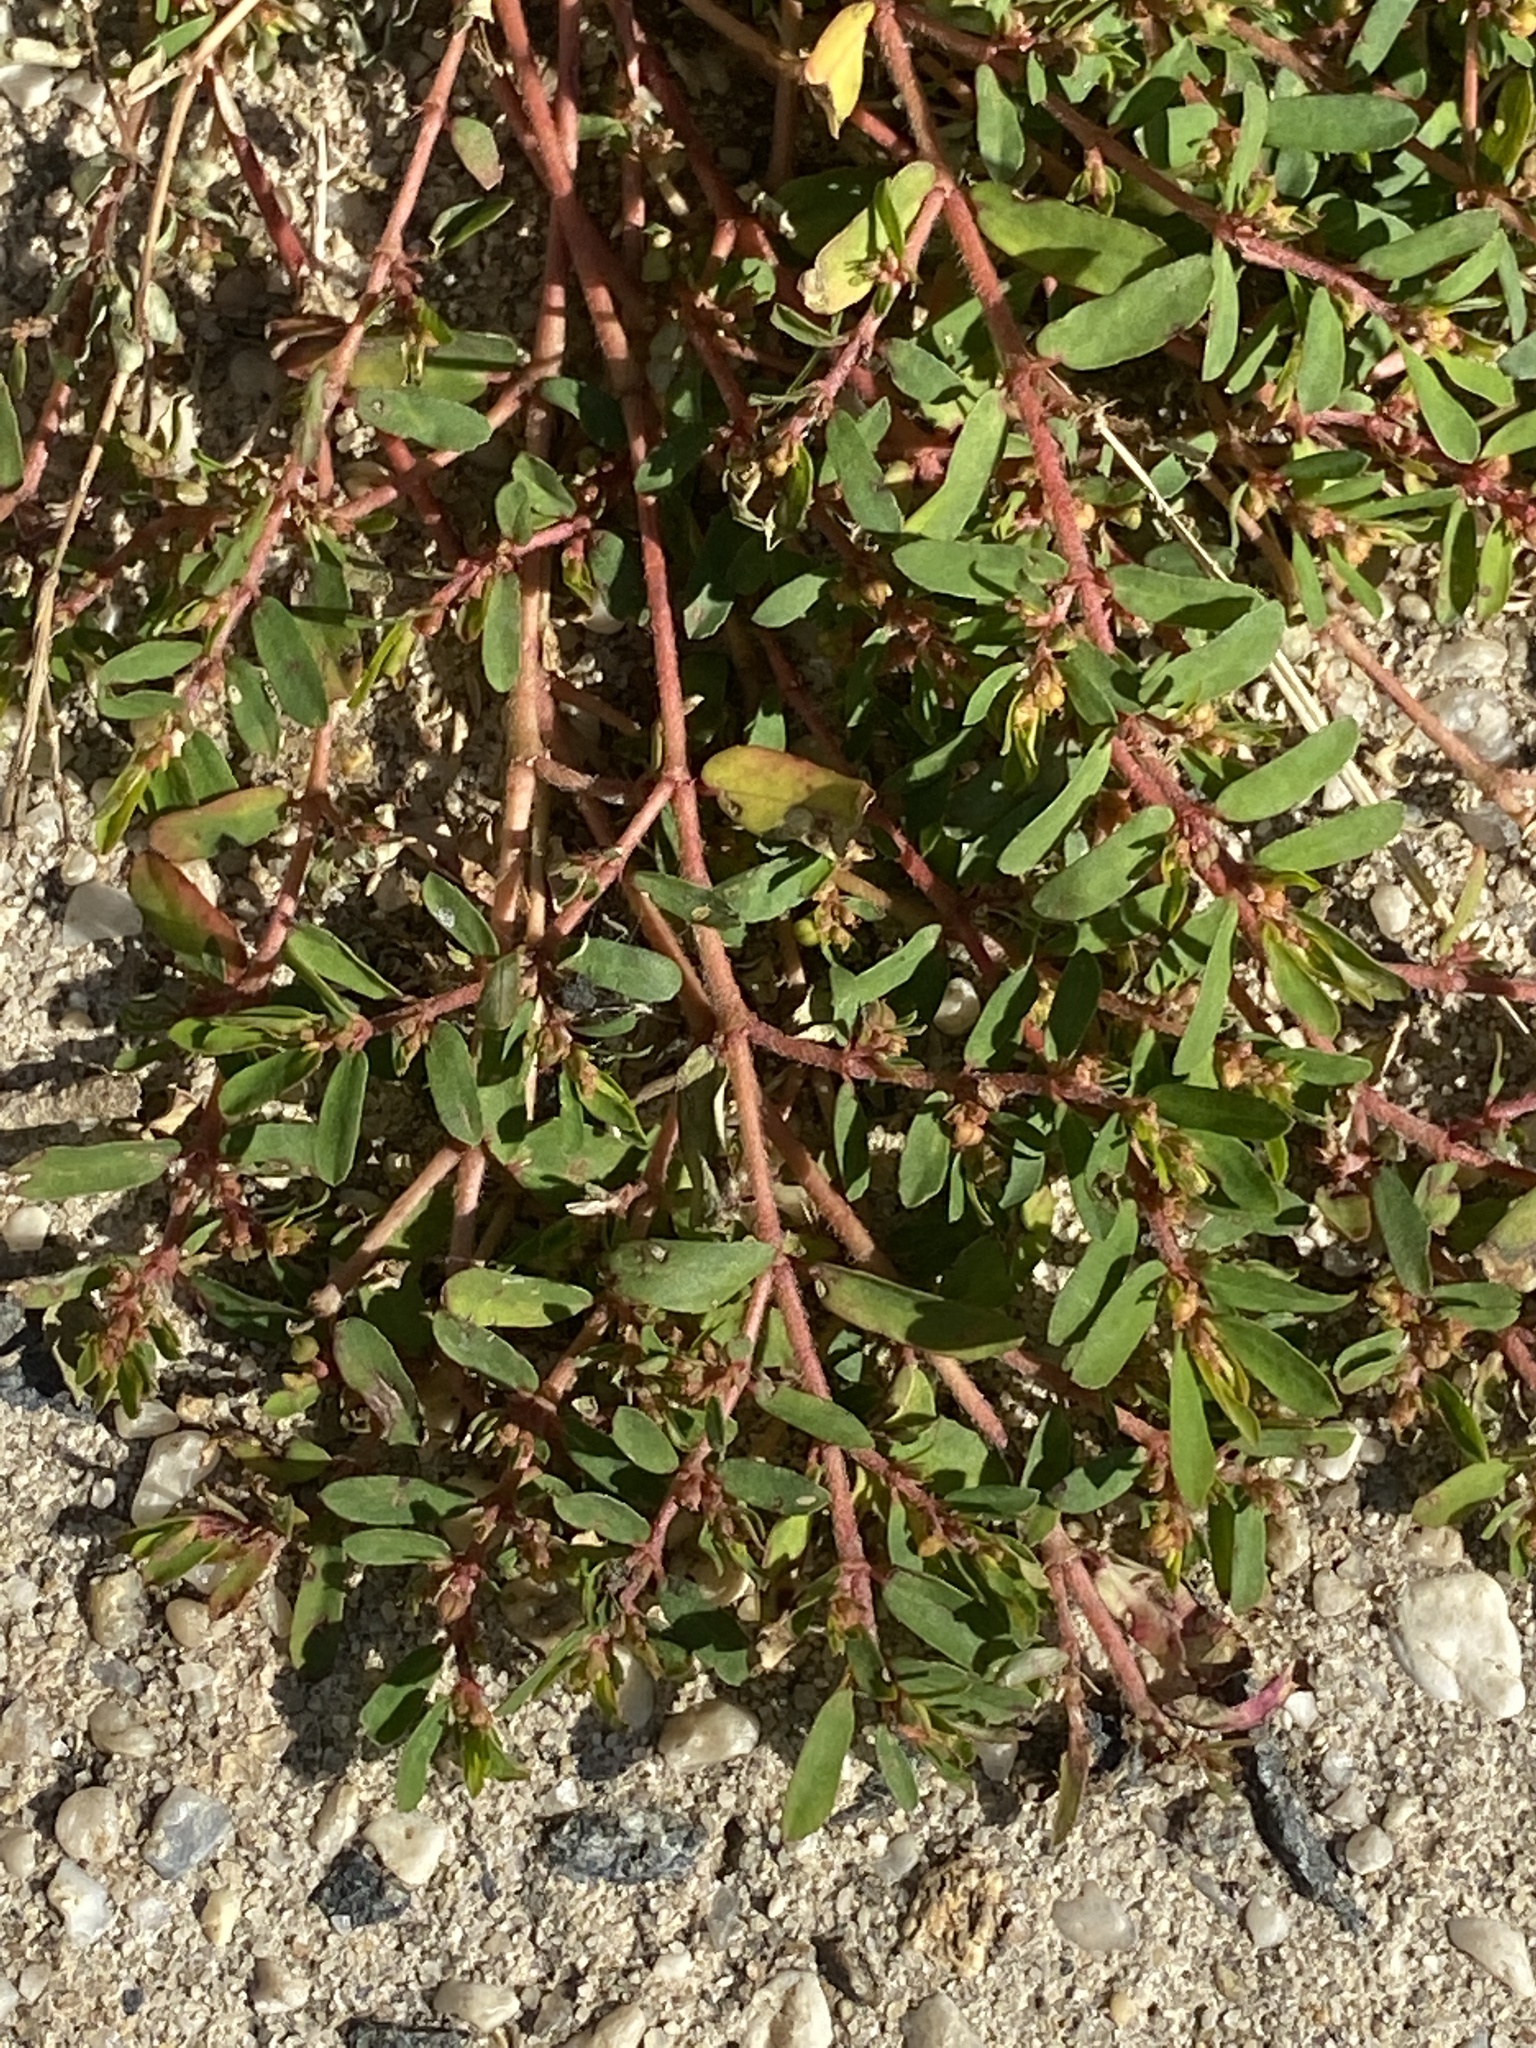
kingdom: Plantae
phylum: Tracheophyta
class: Magnoliopsida
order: Malpighiales
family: Euphorbiaceae
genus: Euphorbia
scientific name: Euphorbia maculata
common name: Spotted spurge
